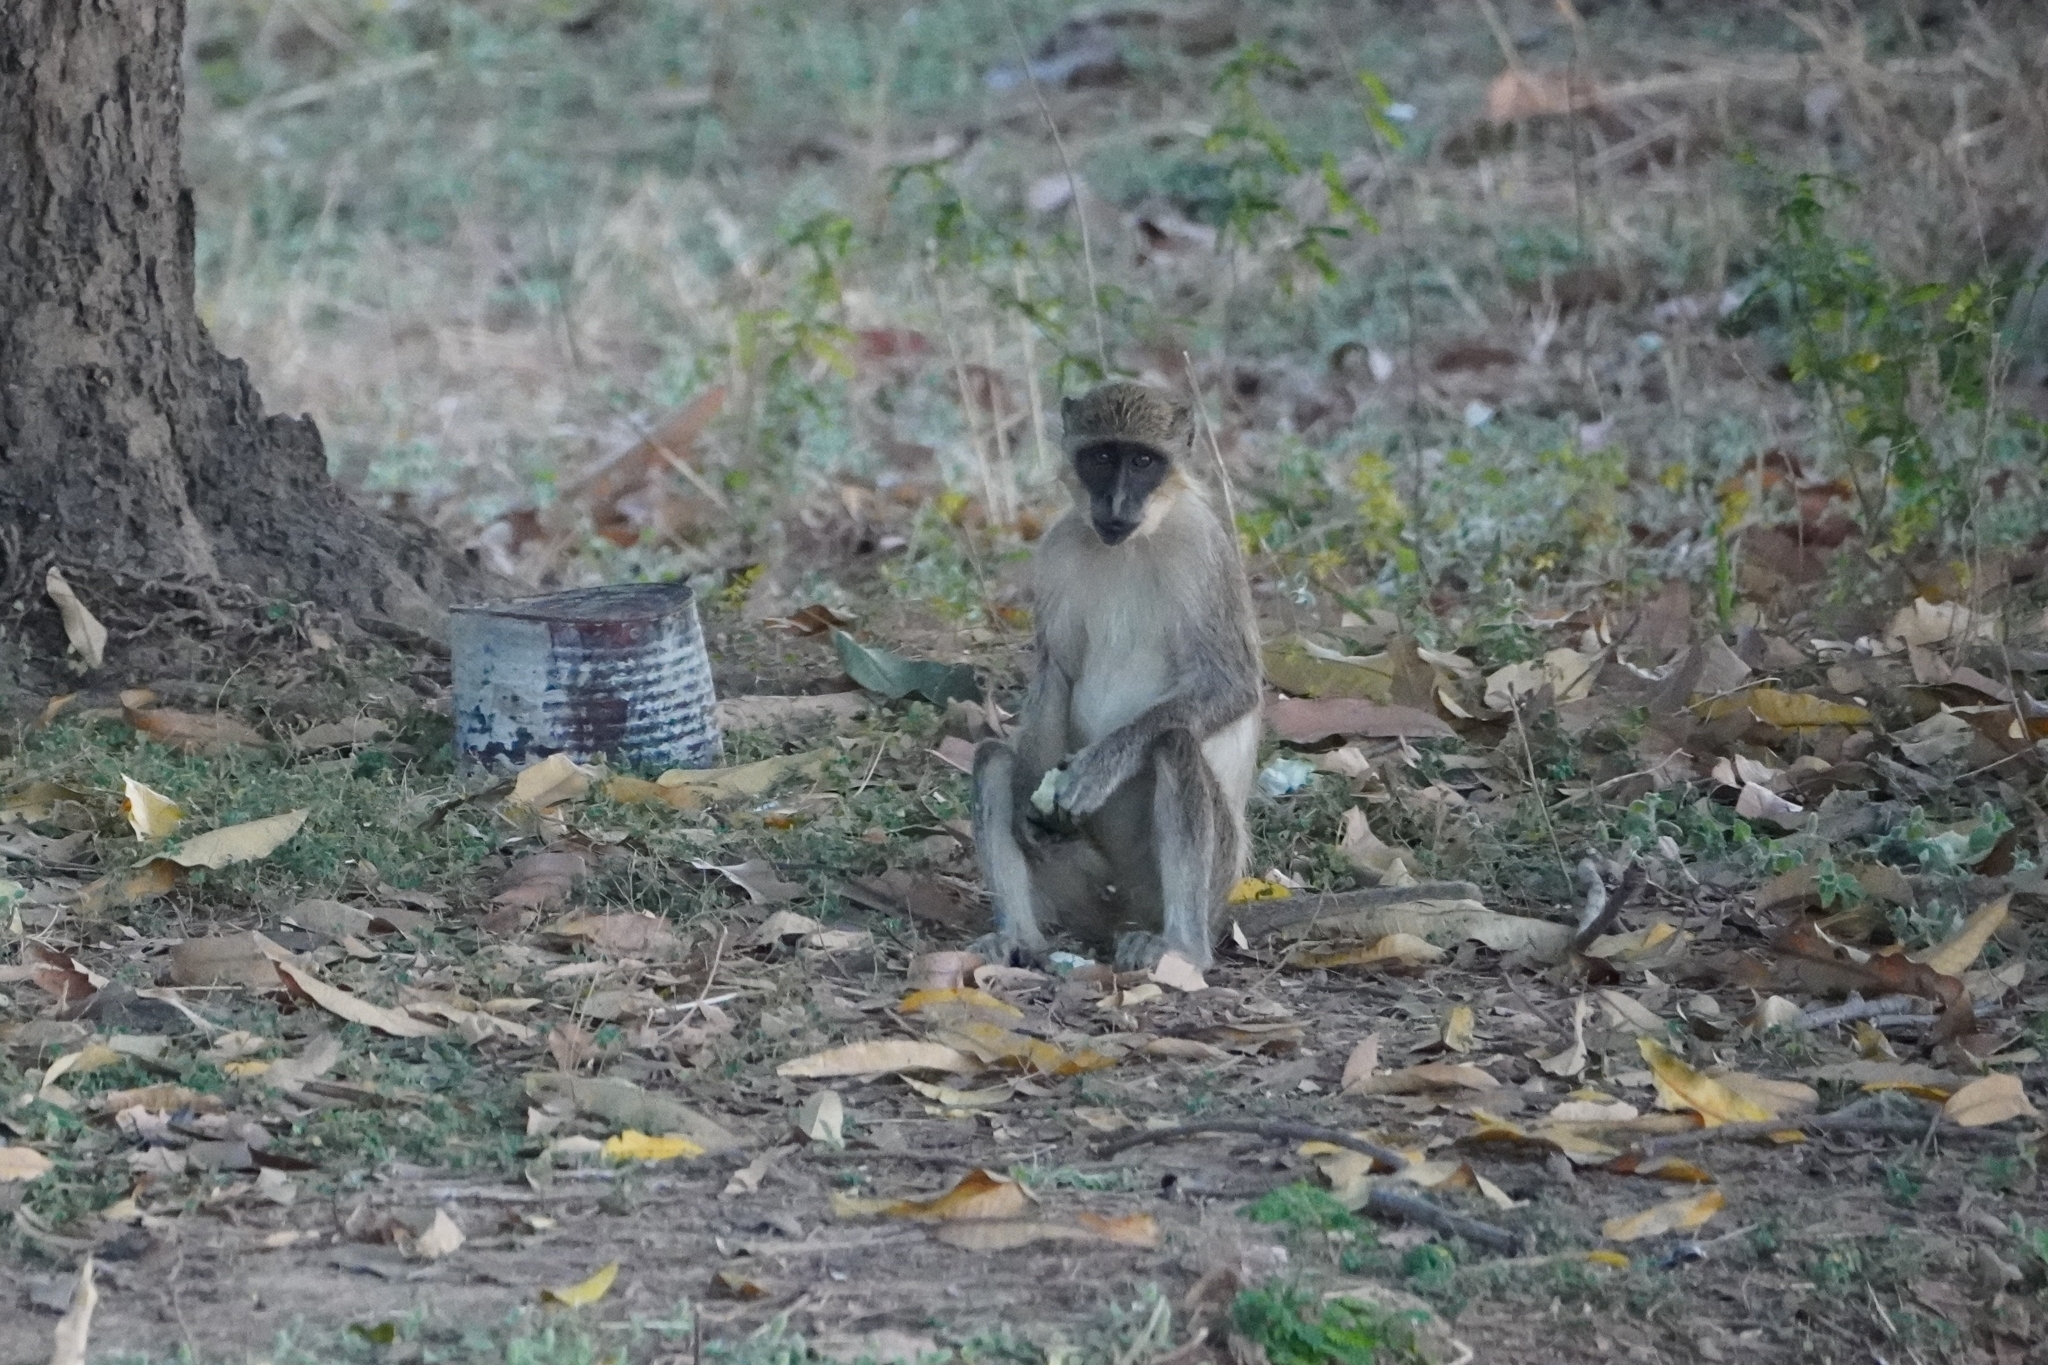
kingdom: Animalia
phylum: Chordata
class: Mammalia
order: Primates
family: Cercopithecidae
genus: Chlorocebus
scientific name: Chlorocebus sabaeus
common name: Green monkey
